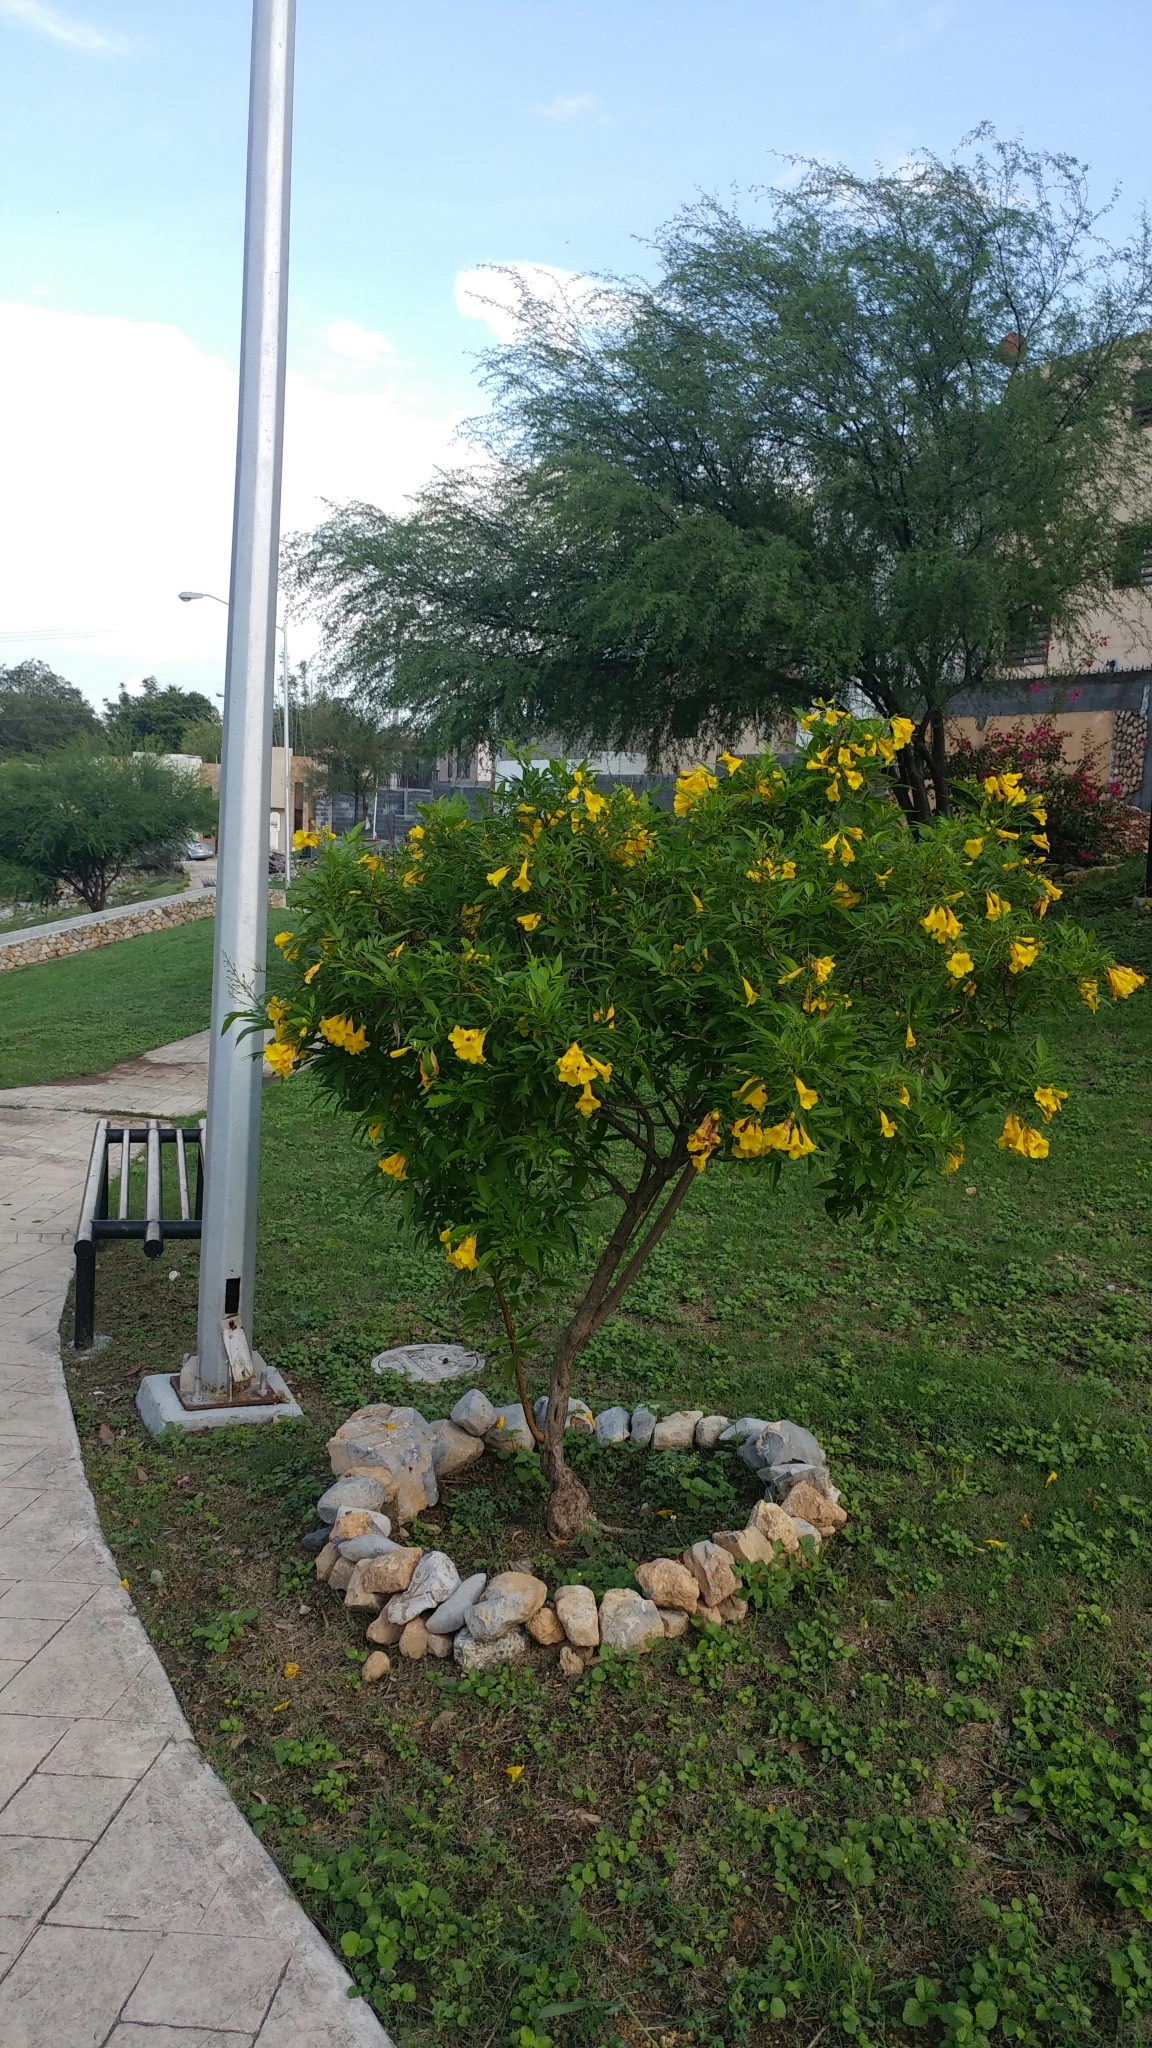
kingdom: Plantae
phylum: Tracheophyta
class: Magnoliopsida
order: Lamiales
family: Bignoniaceae
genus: Tecoma
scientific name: Tecoma stans
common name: Yellow trumpetbush
